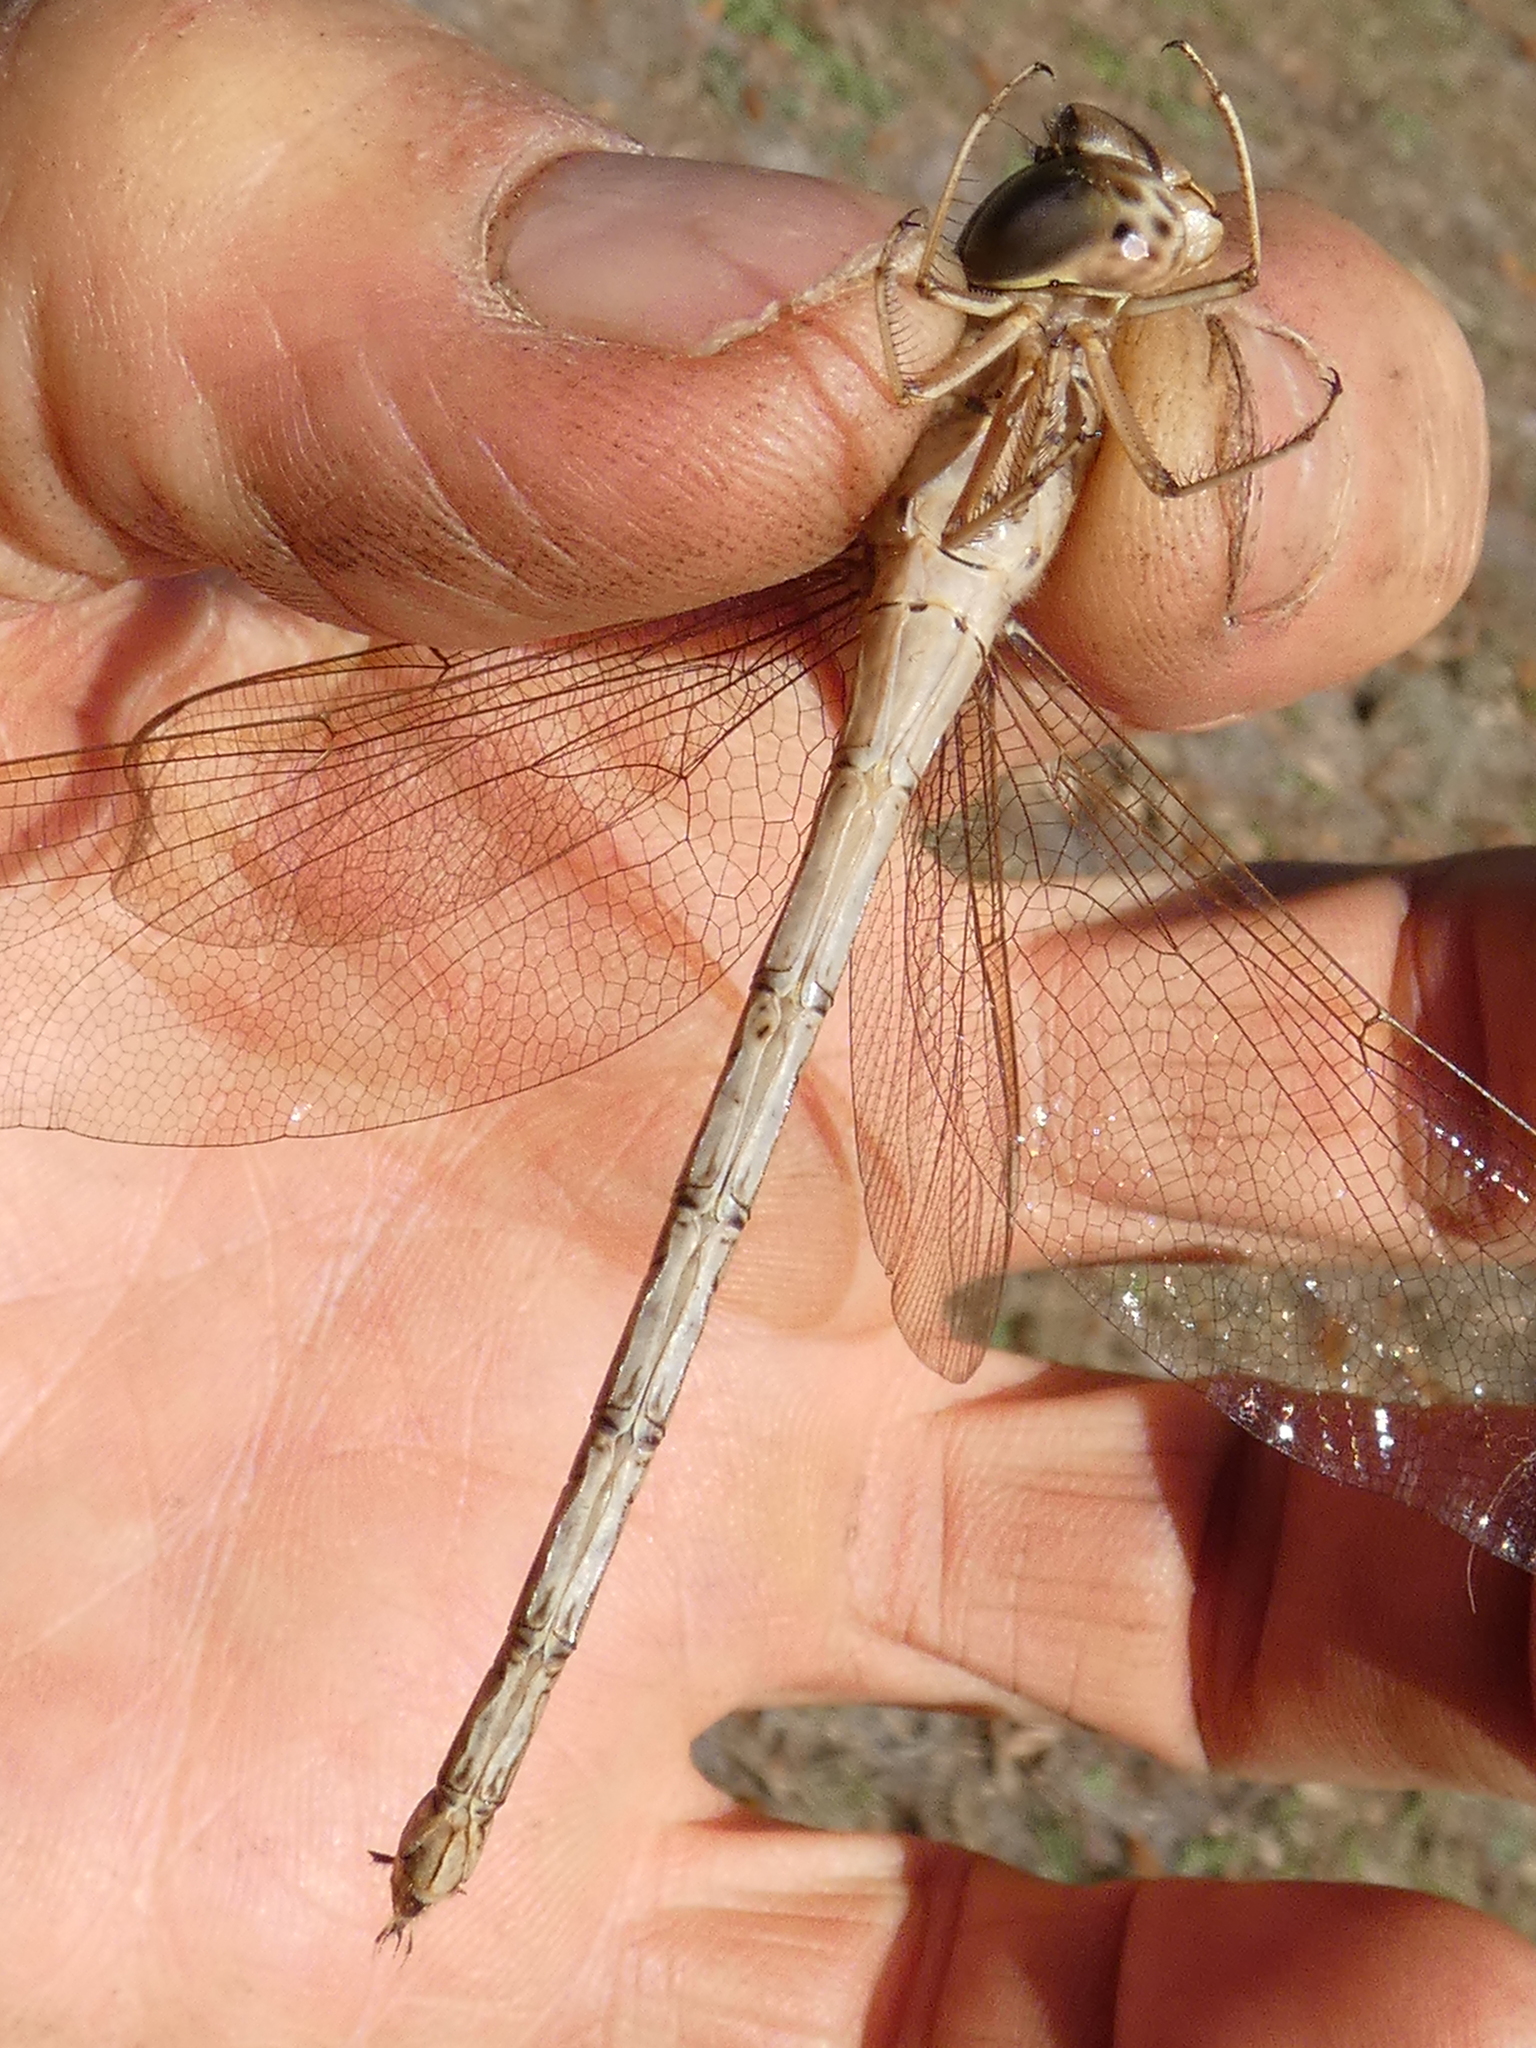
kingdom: Animalia
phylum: Arthropoda
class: Insecta
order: Odonata
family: Aeshnidae
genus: Gynacantha
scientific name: Gynacantha nervosa
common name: Twilight darner
